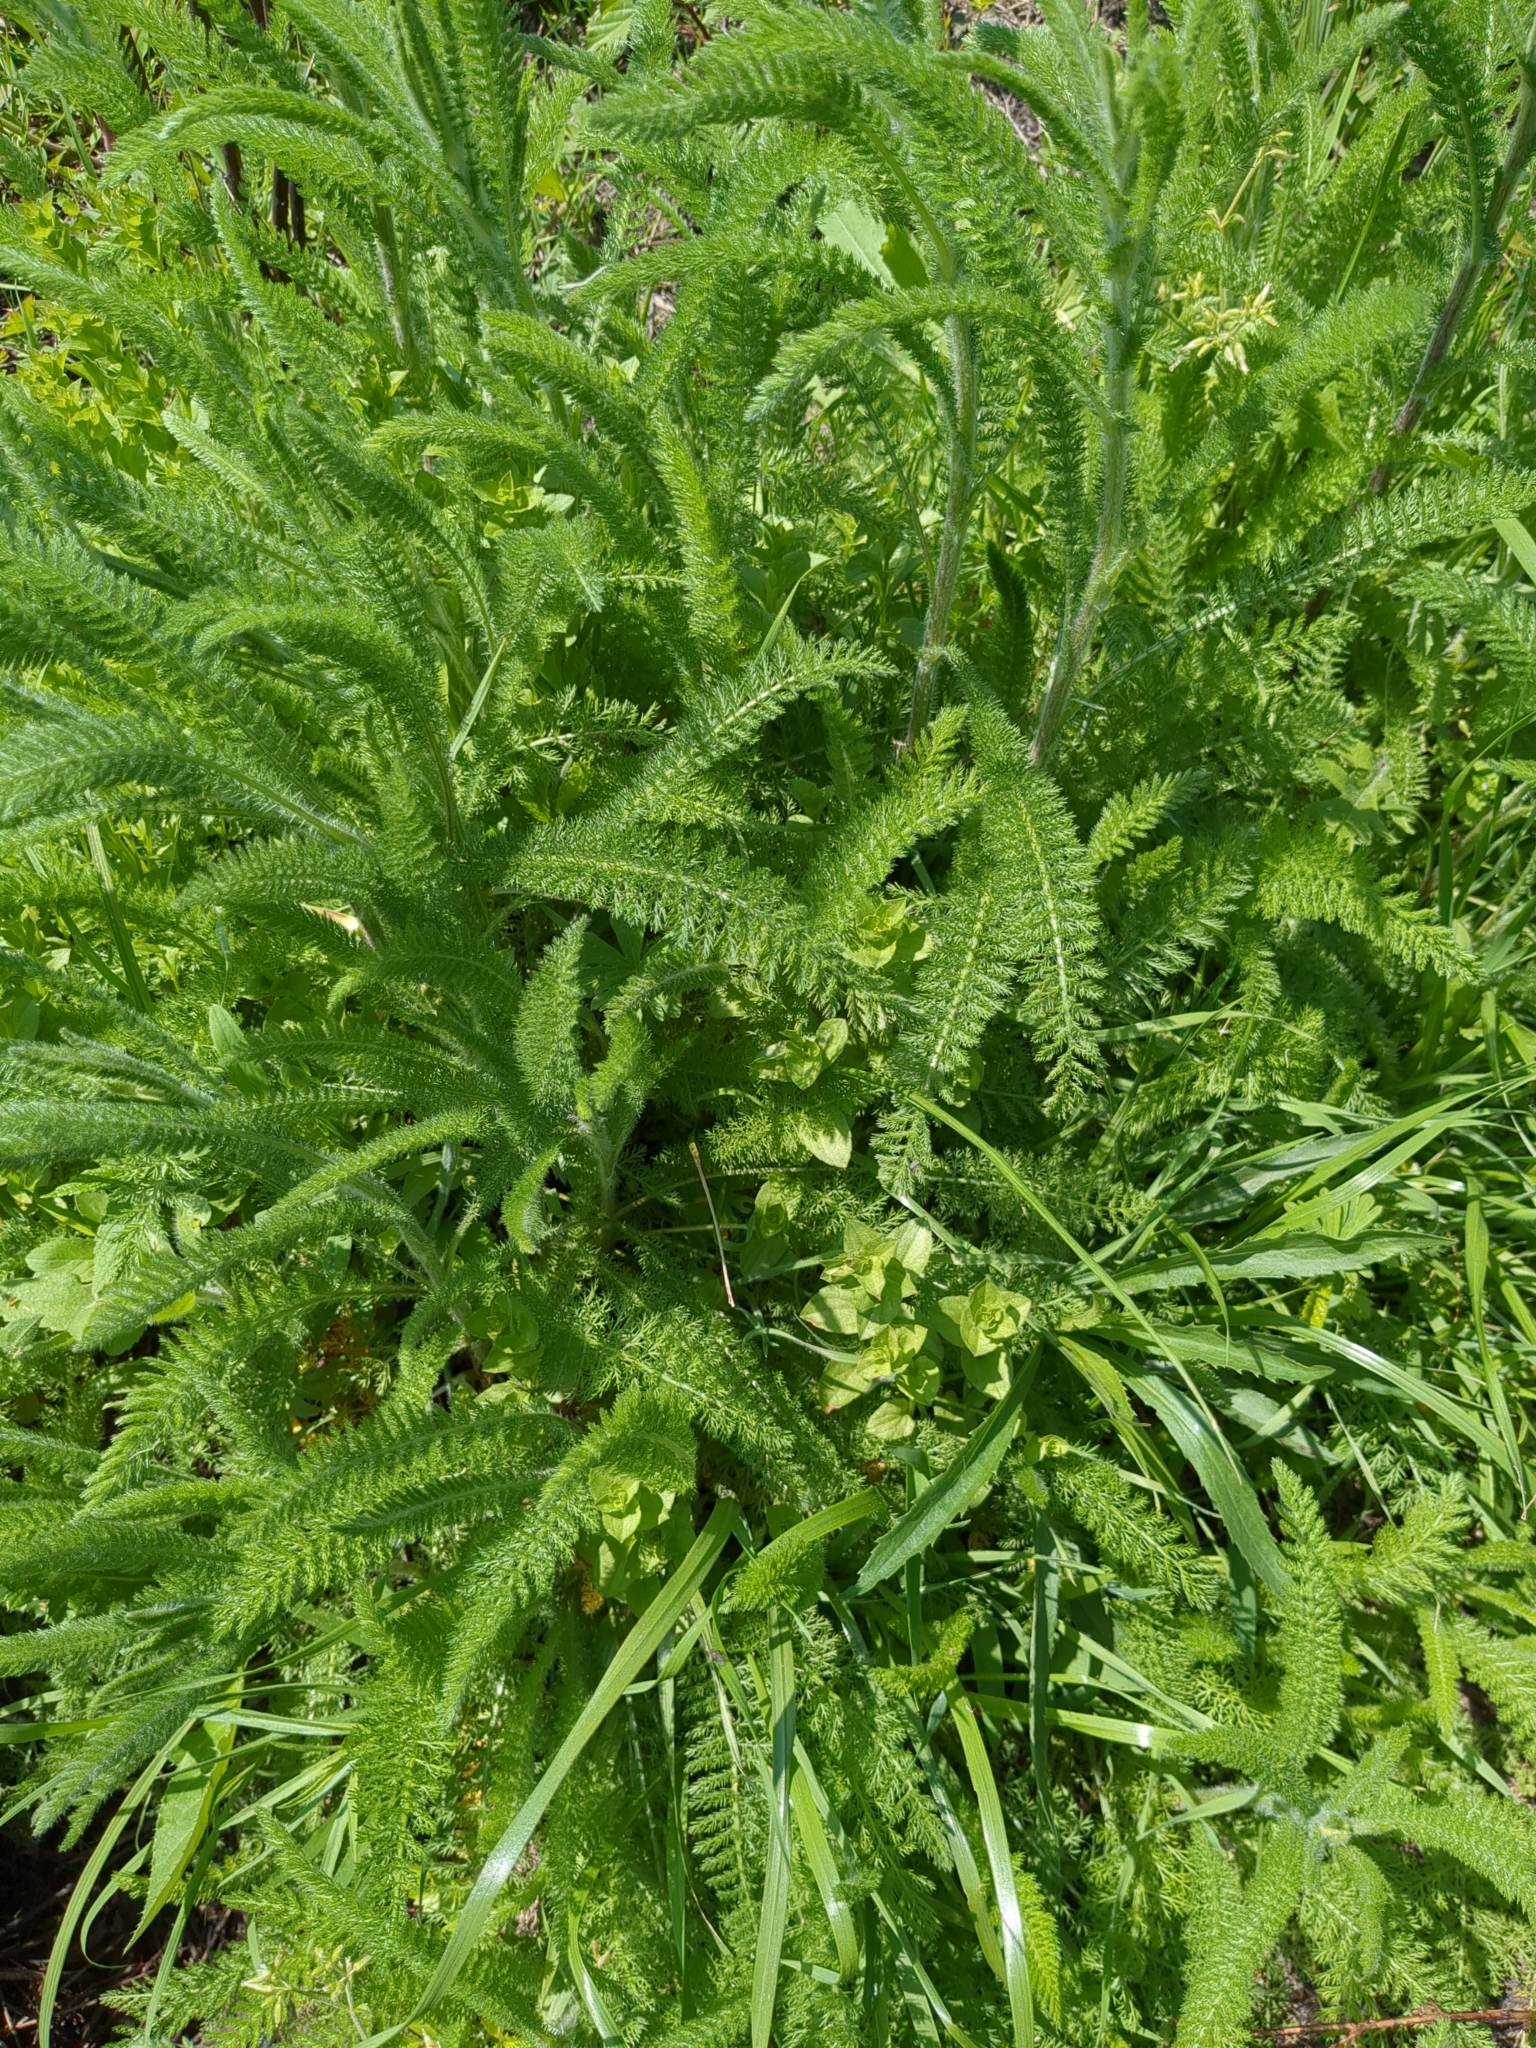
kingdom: Plantae
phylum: Tracheophyta
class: Magnoliopsida
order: Asterales
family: Asteraceae
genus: Achillea
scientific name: Achillea millefolium
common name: Yarrow
